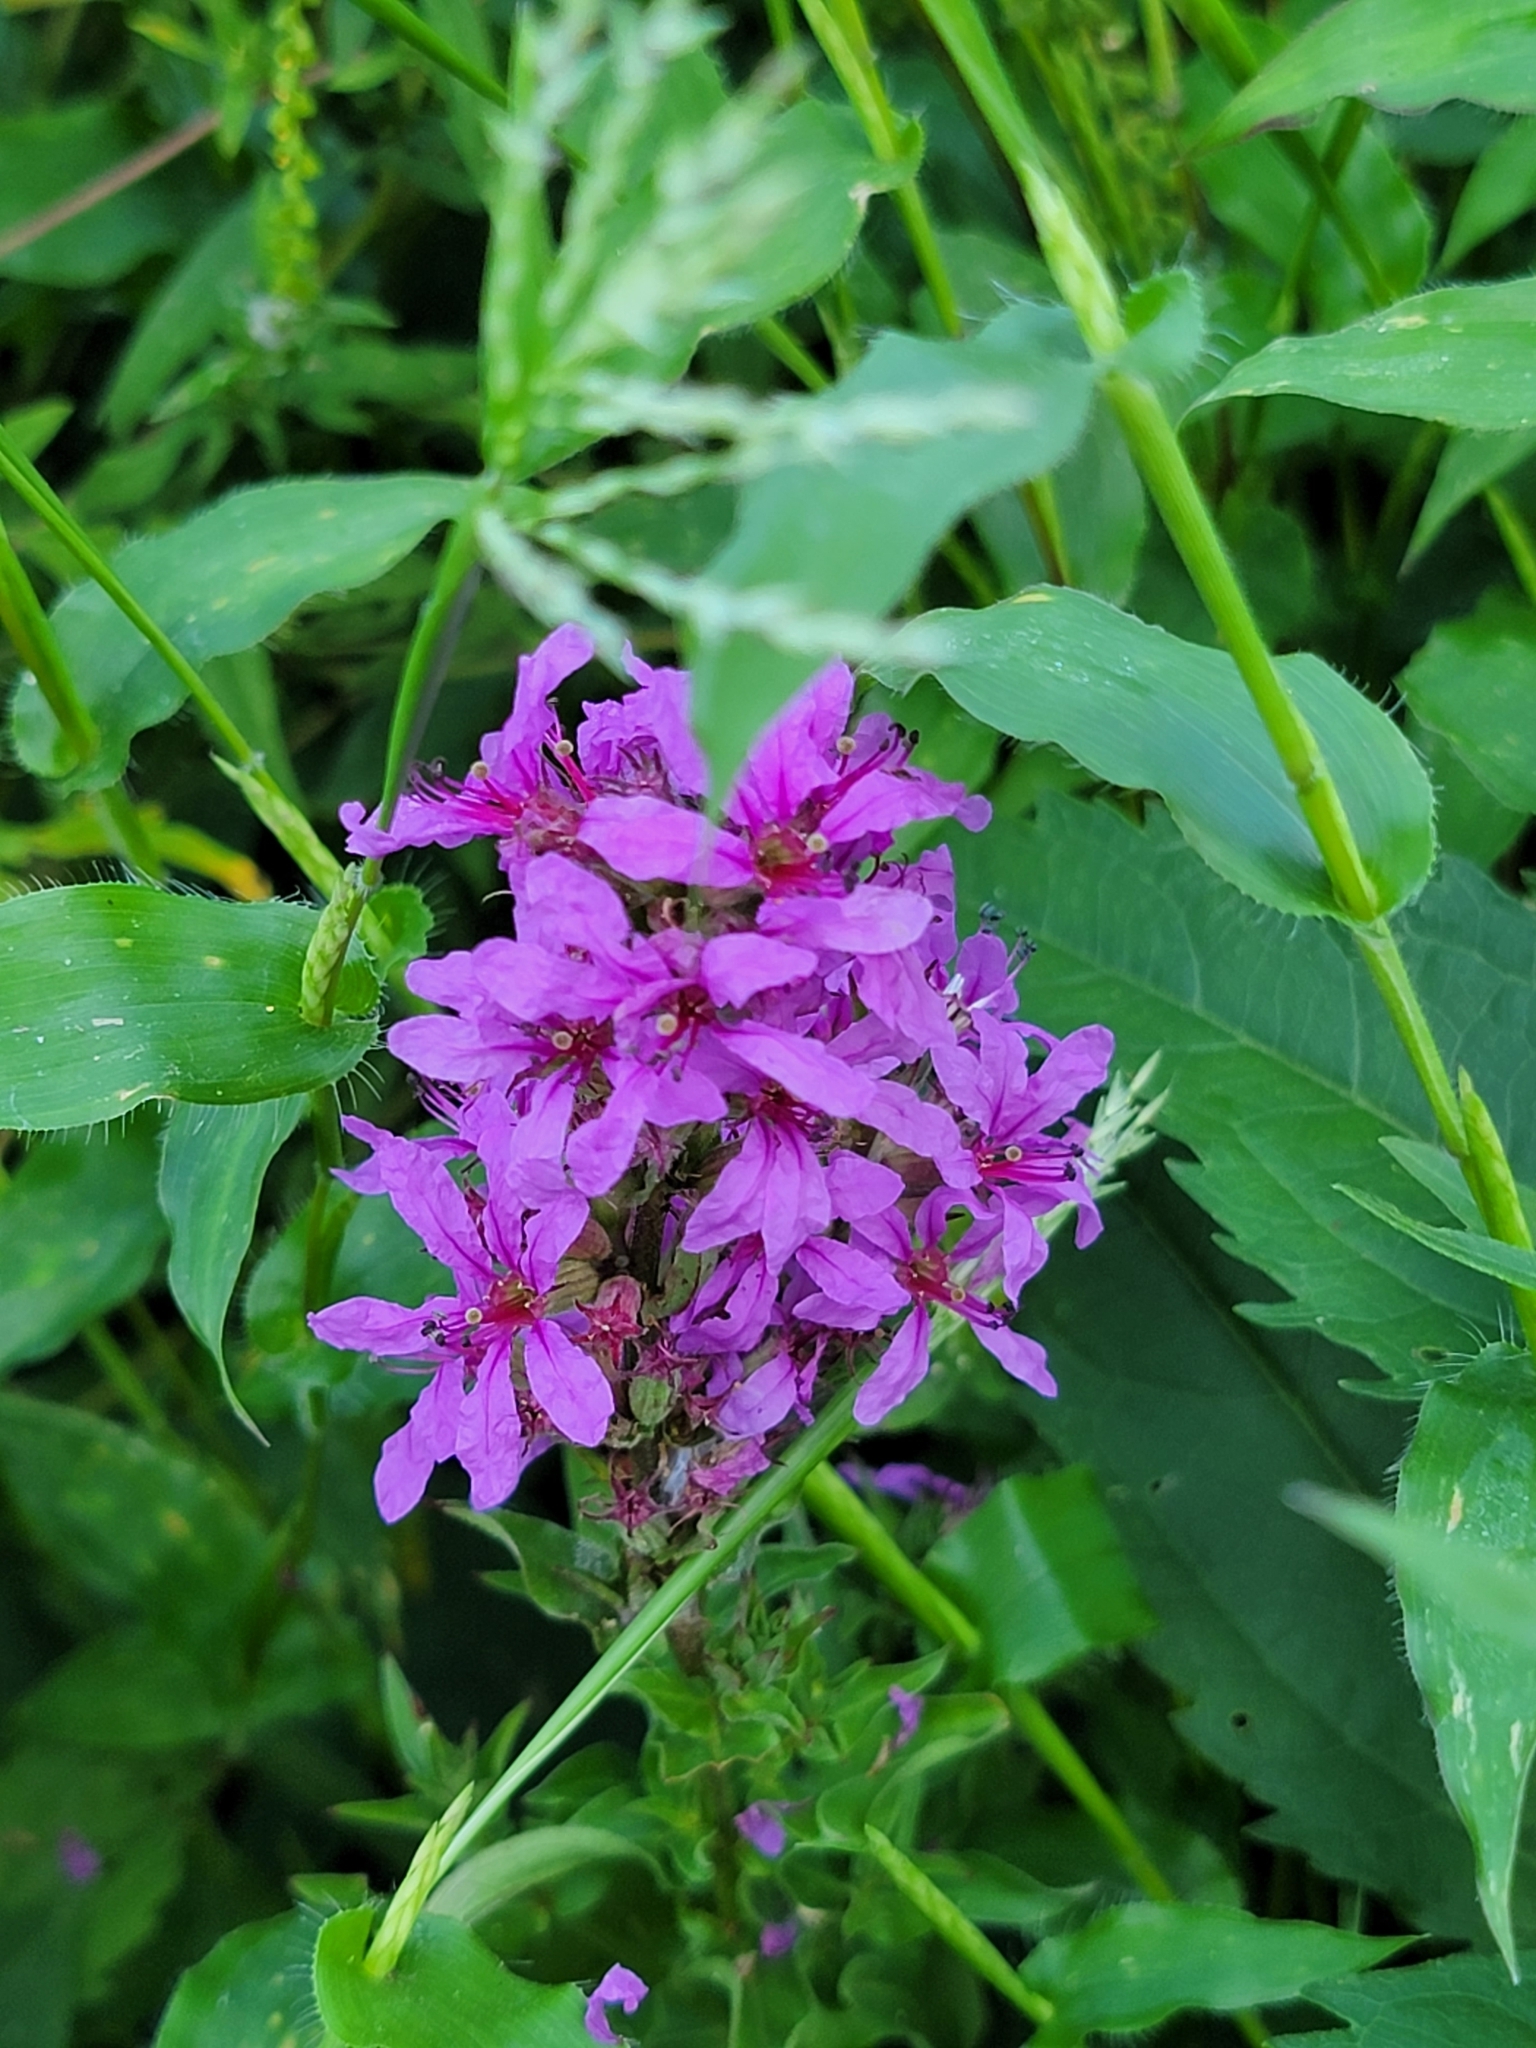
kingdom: Plantae
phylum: Tracheophyta
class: Magnoliopsida
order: Myrtales
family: Lythraceae
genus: Lythrum
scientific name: Lythrum salicaria
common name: Purple loosestrife
